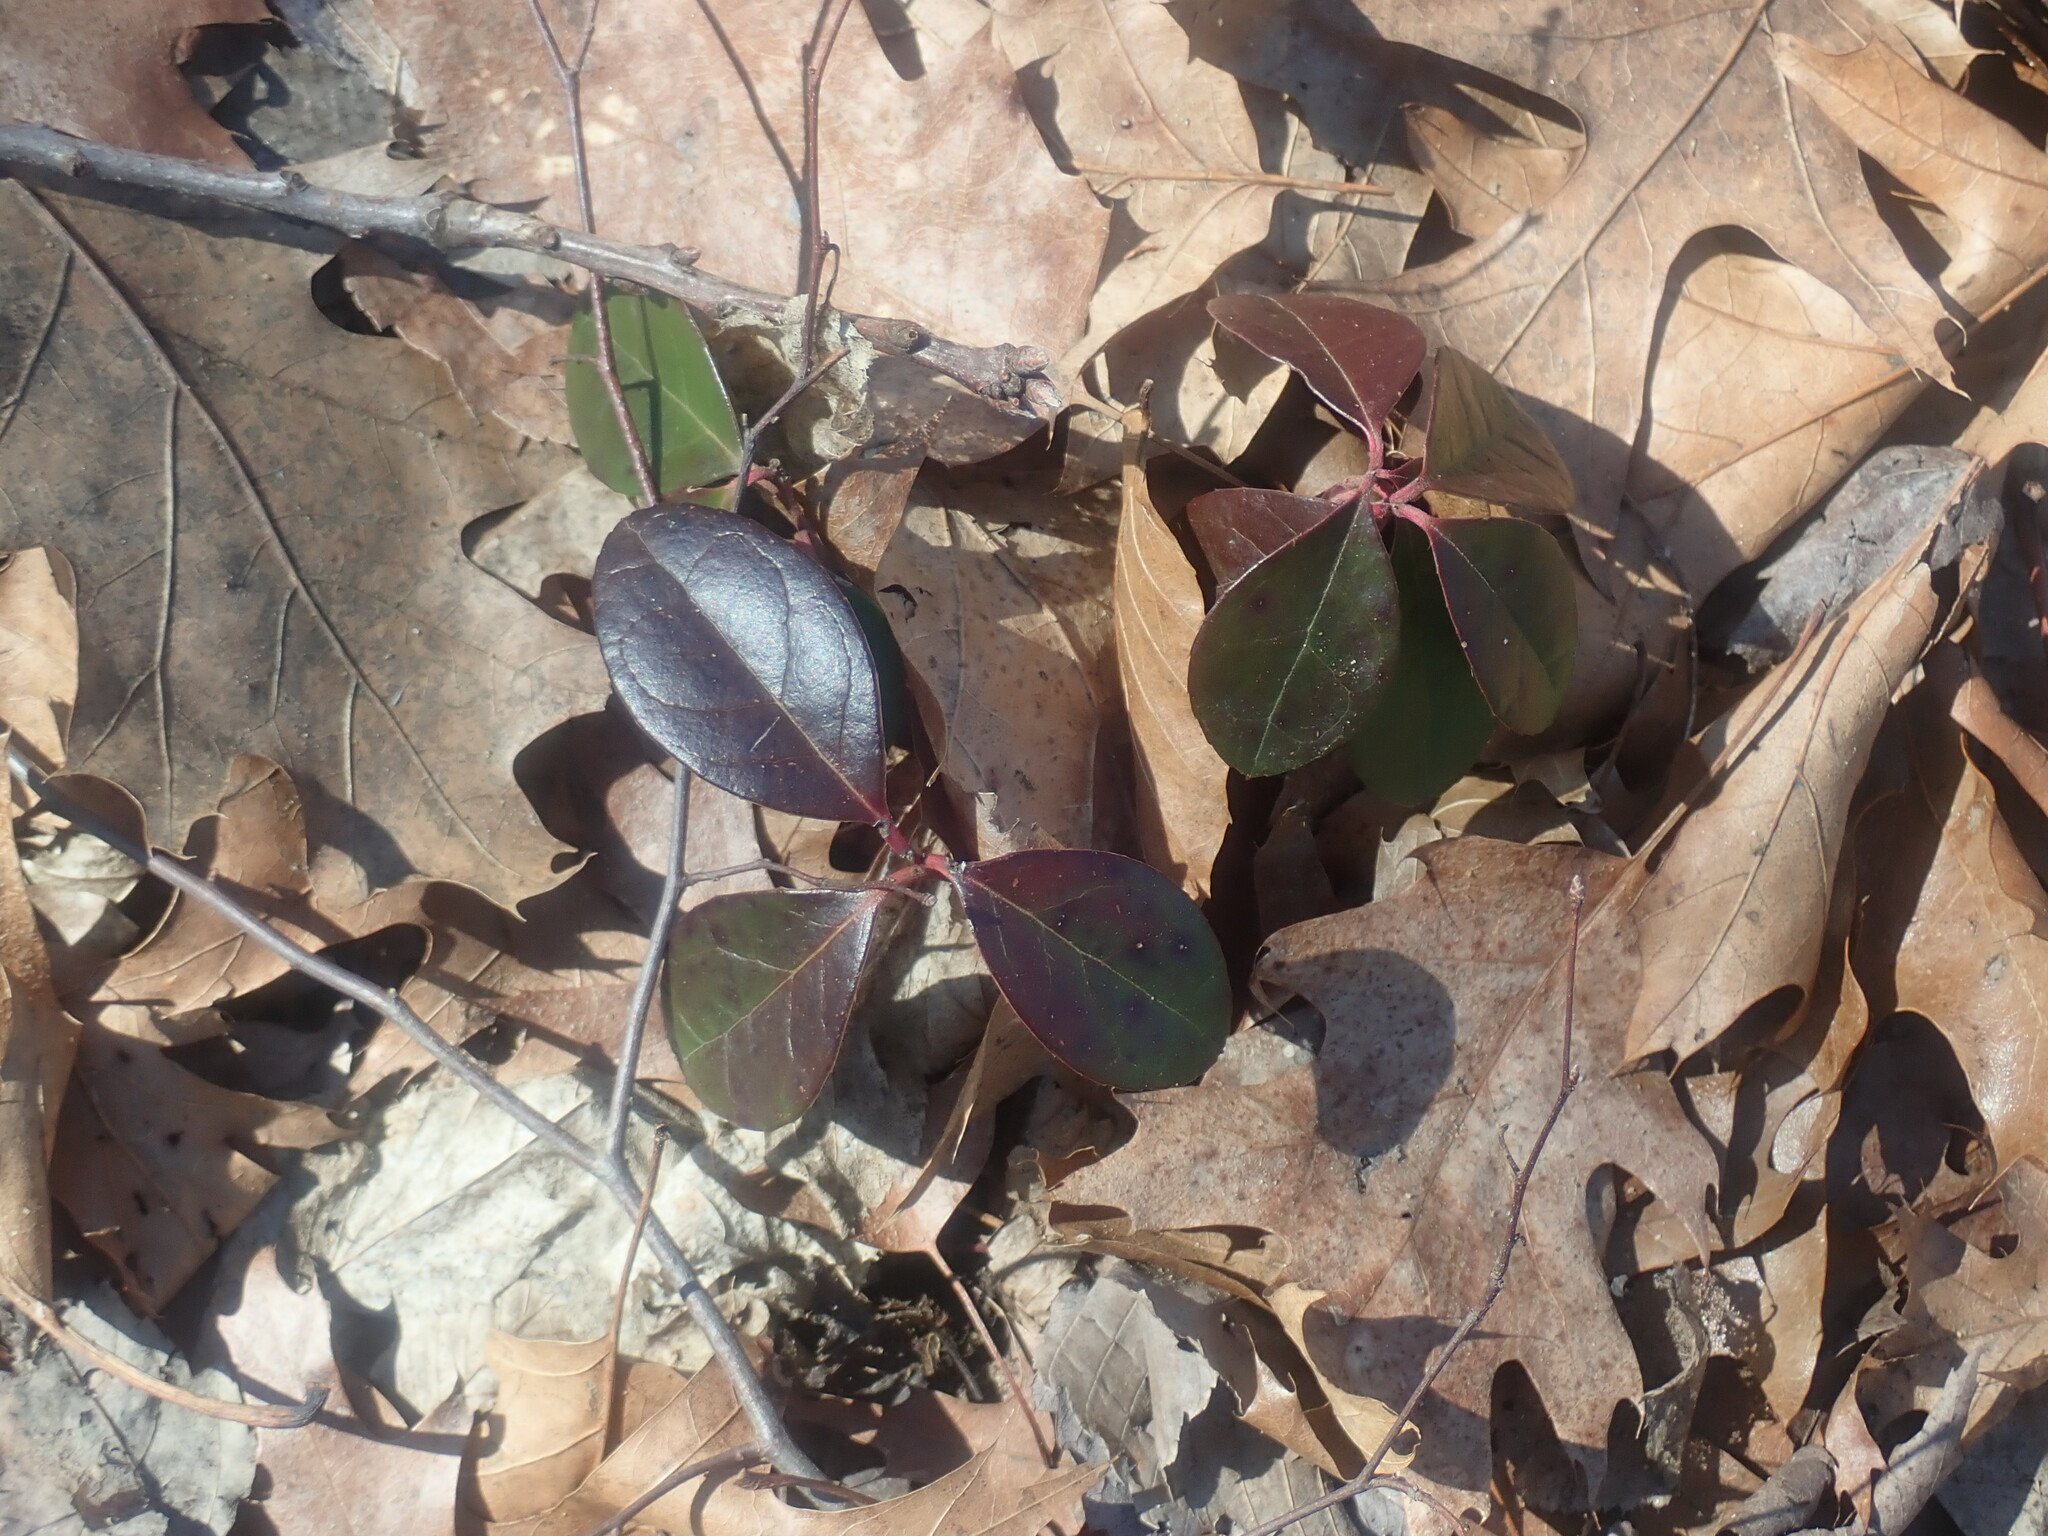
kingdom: Plantae
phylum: Tracheophyta
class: Magnoliopsida
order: Ericales
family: Ericaceae
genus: Gaultheria
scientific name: Gaultheria procumbens
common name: Checkerberry
